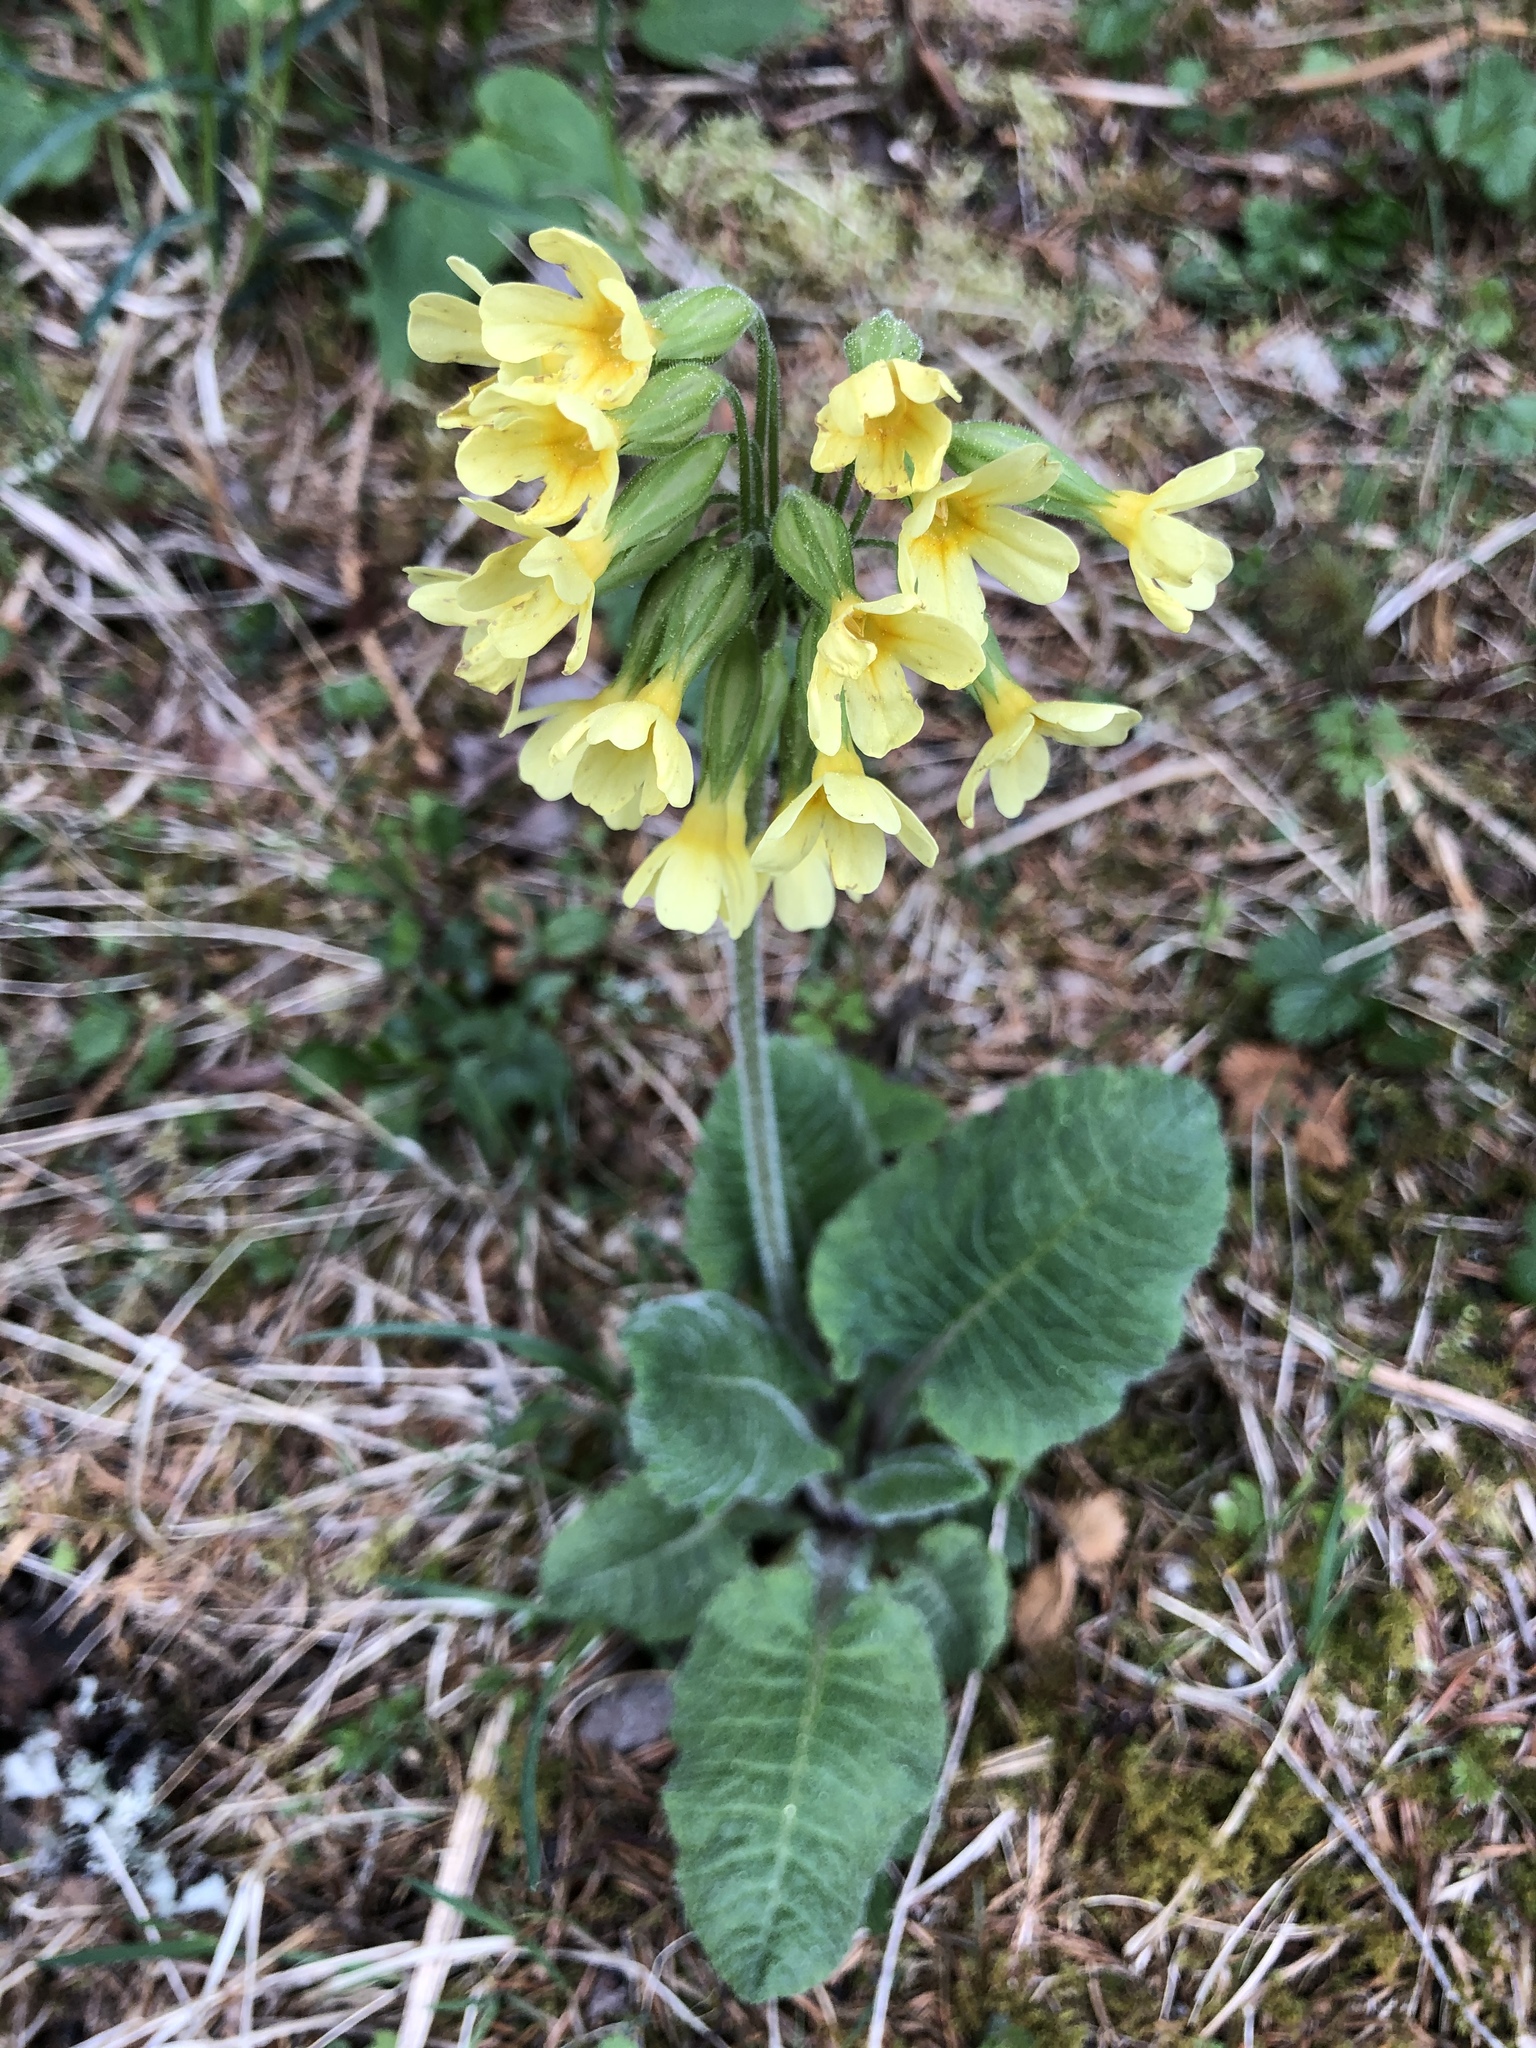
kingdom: Plantae
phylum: Tracheophyta
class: Magnoliopsida
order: Ericales
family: Primulaceae
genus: Primula
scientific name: Primula elatior
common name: Oxlip
